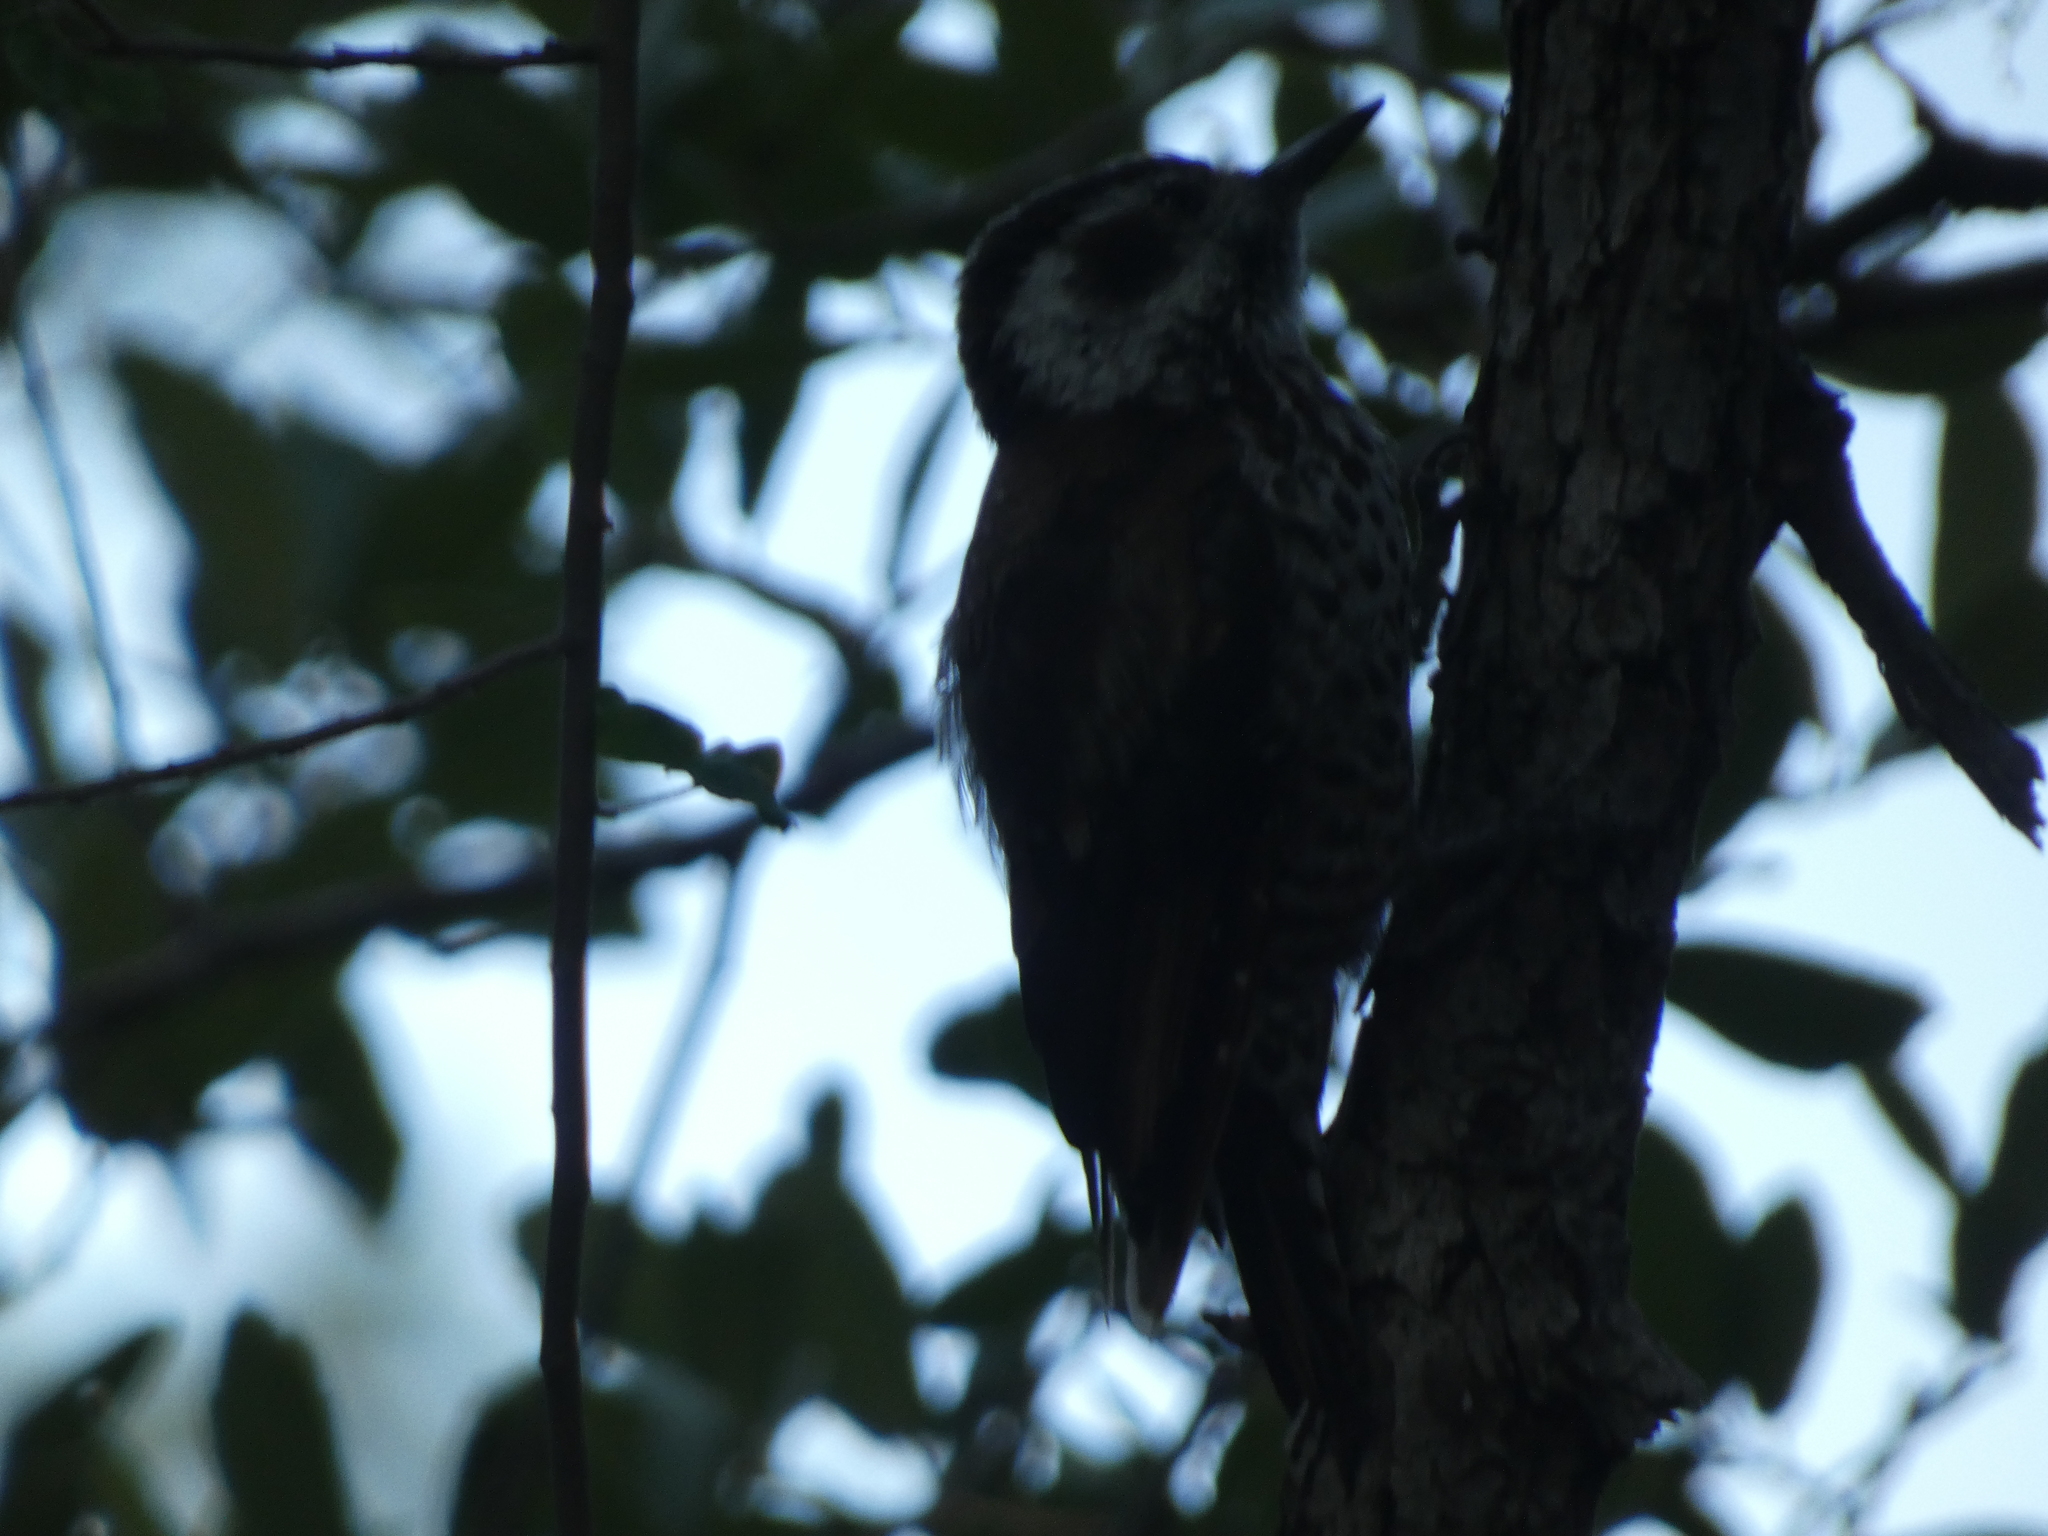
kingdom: Animalia
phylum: Chordata
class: Aves
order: Piciformes
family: Picidae
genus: Leuconotopicus
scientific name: Leuconotopicus arizonae
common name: Arizona woodpecker
